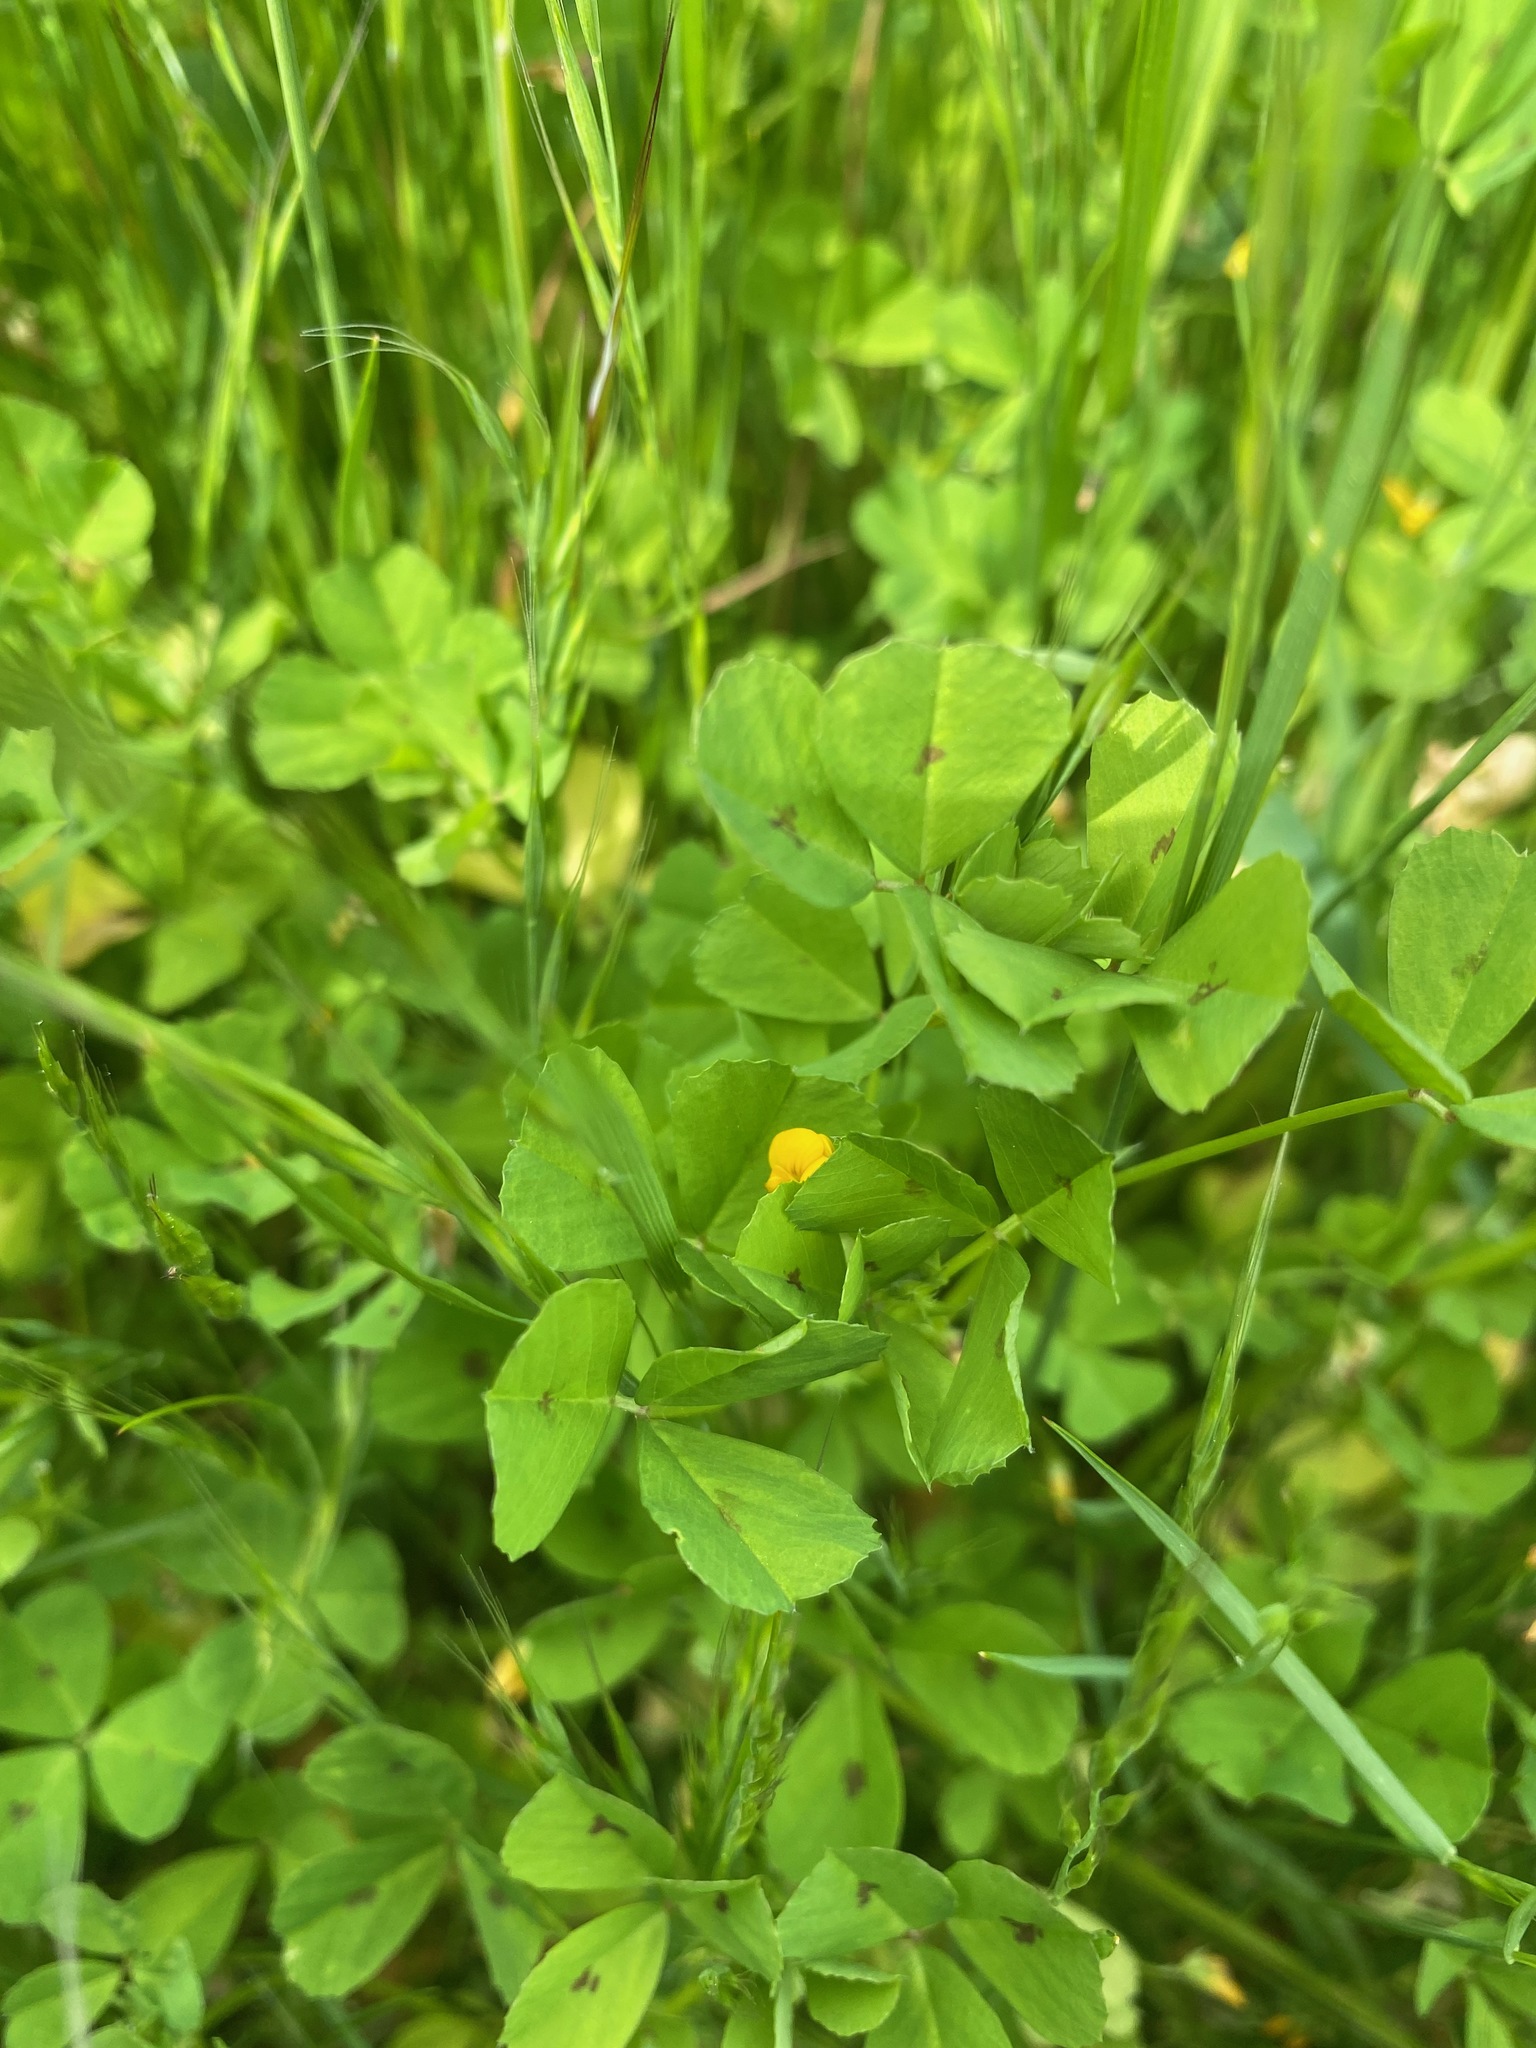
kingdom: Plantae
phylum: Tracheophyta
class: Magnoliopsida
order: Fabales
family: Fabaceae
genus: Medicago
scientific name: Medicago arabica
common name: Spotted medick
